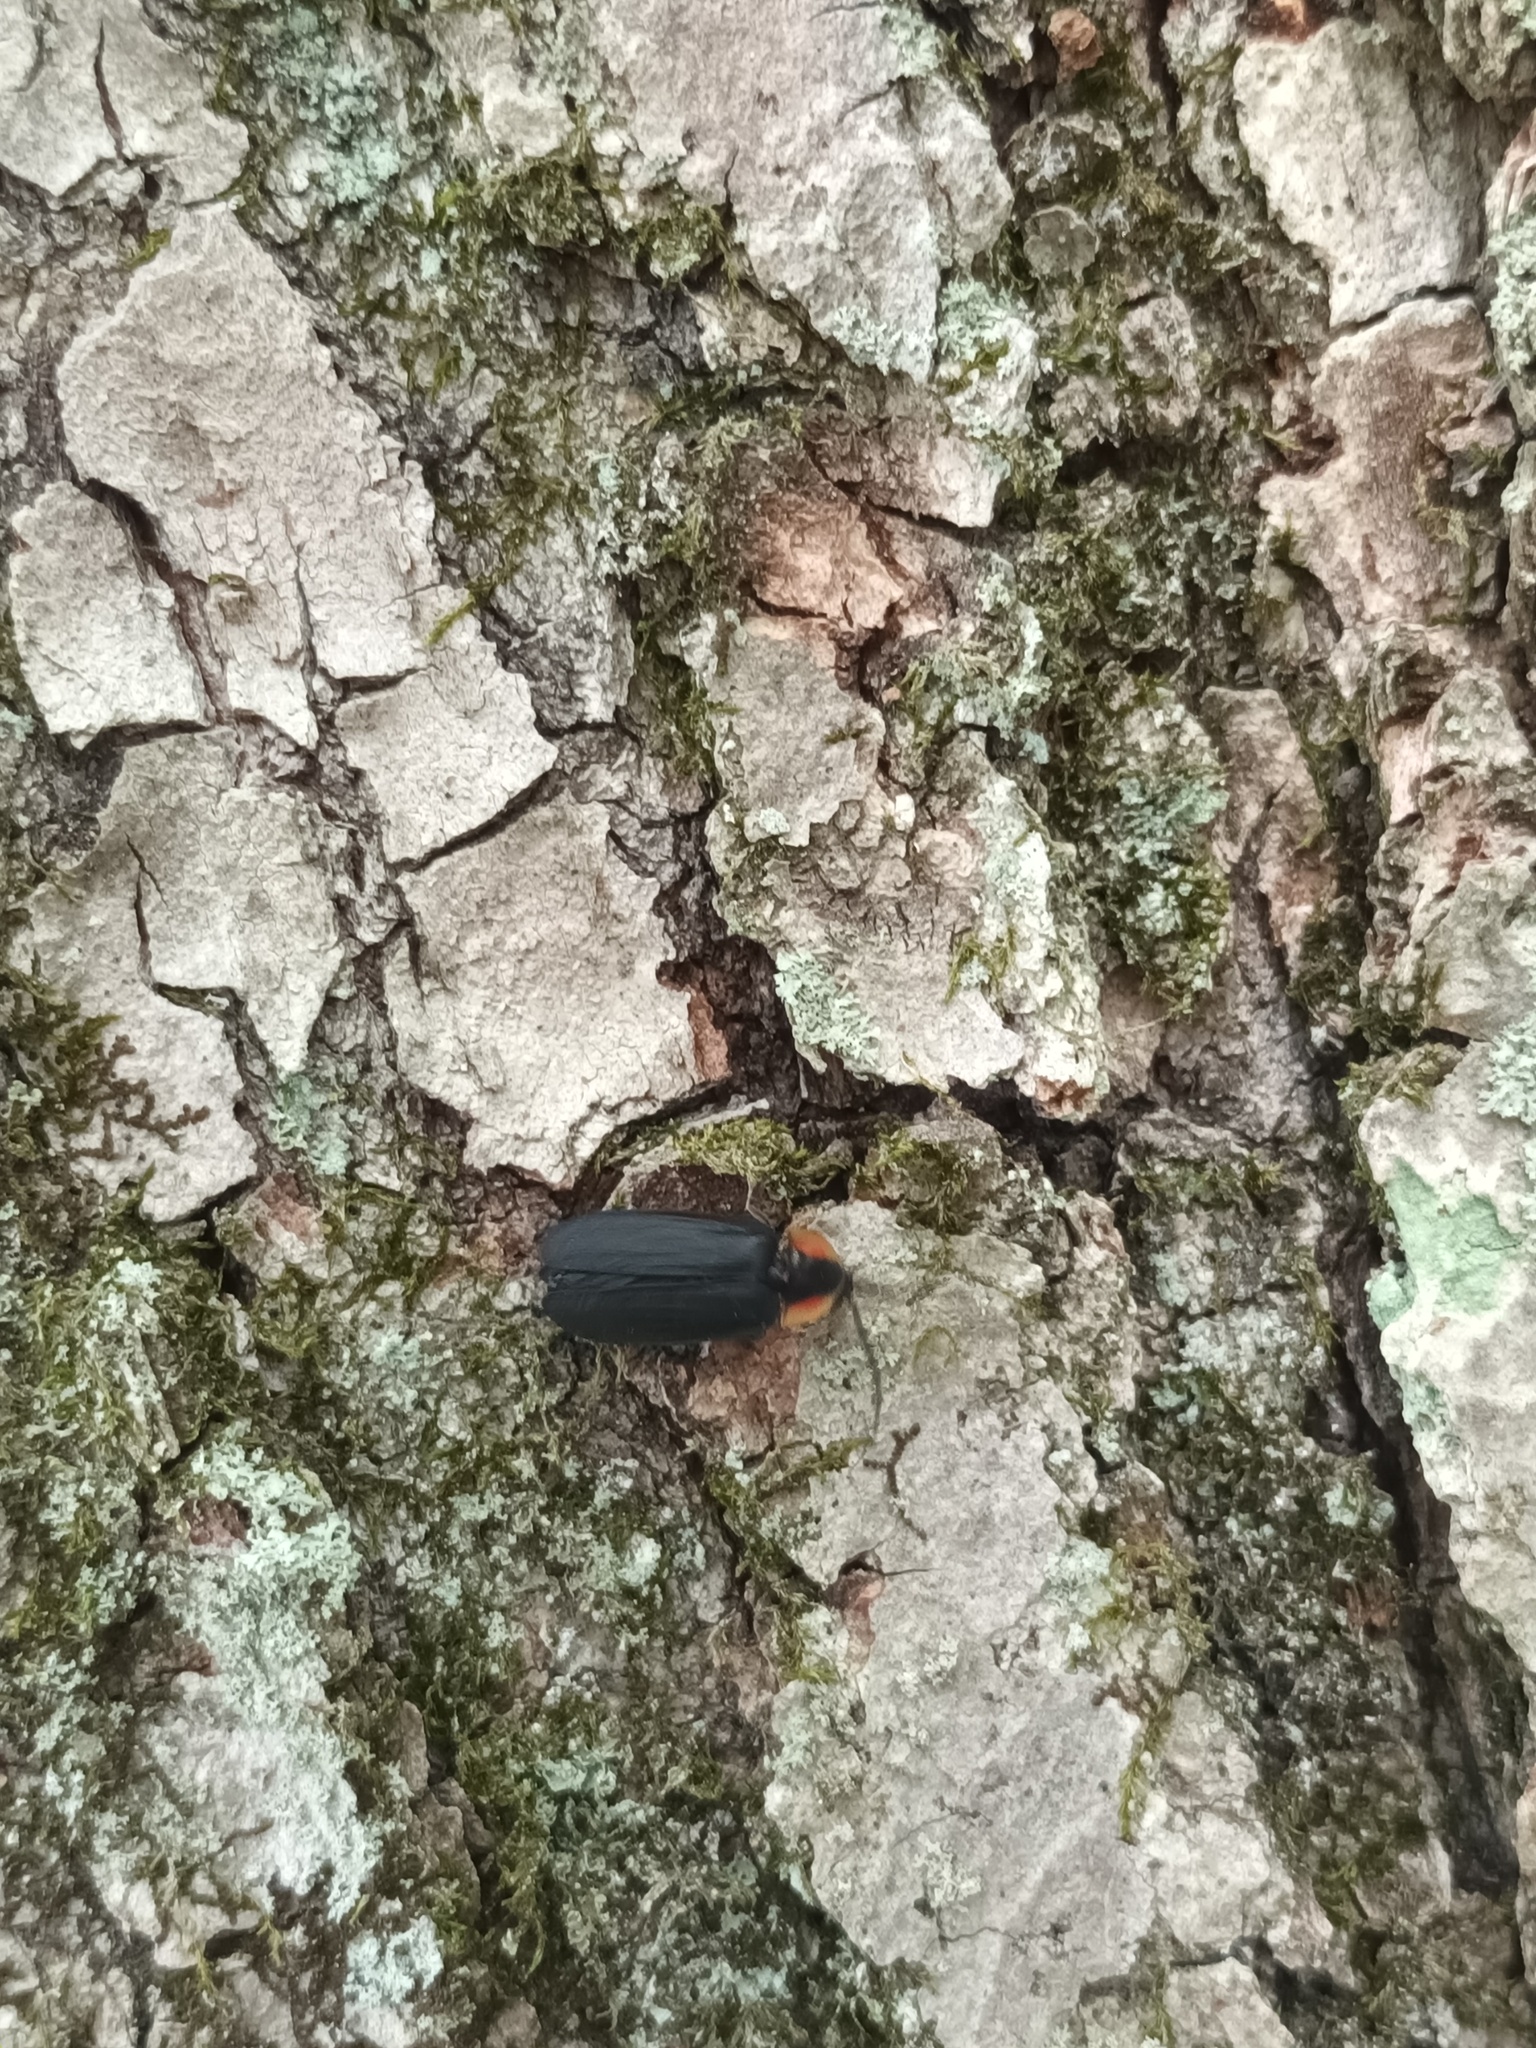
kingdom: Animalia
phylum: Arthropoda
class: Insecta
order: Coleoptera
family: Lampyridae
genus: Lucidota
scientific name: Lucidota atra
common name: Black firefly
